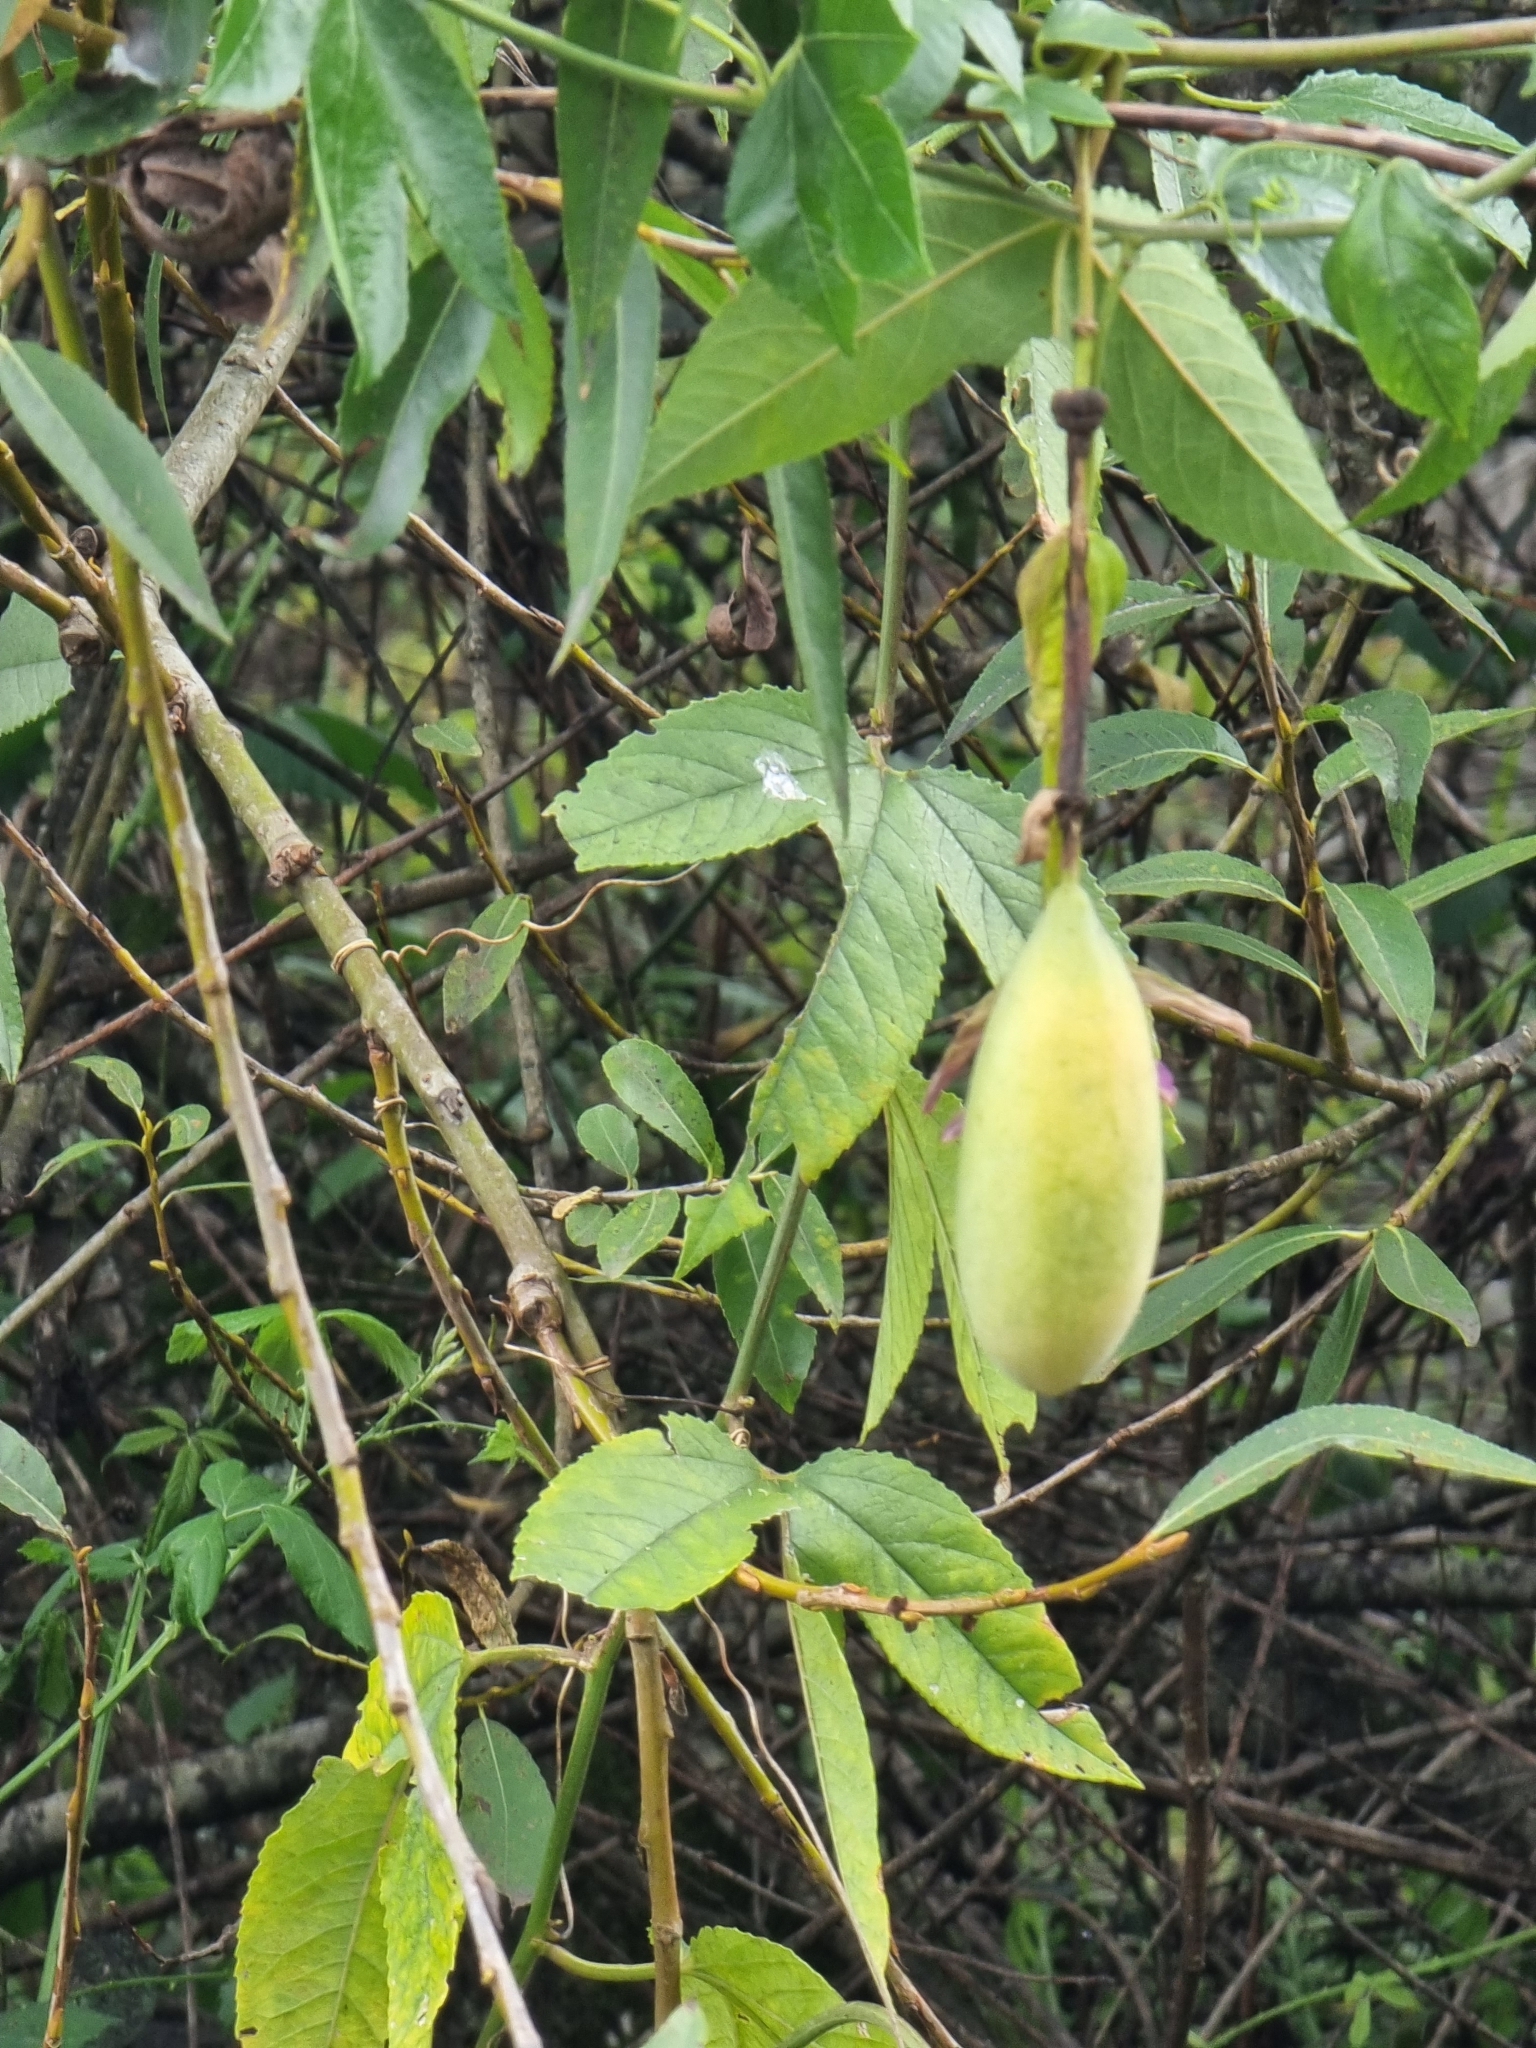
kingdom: Plantae
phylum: Tracheophyta
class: Magnoliopsida
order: Malpighiales
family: Passifloraceae
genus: Passiflora
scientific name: Passiflora tarminiana
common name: Banana poka
